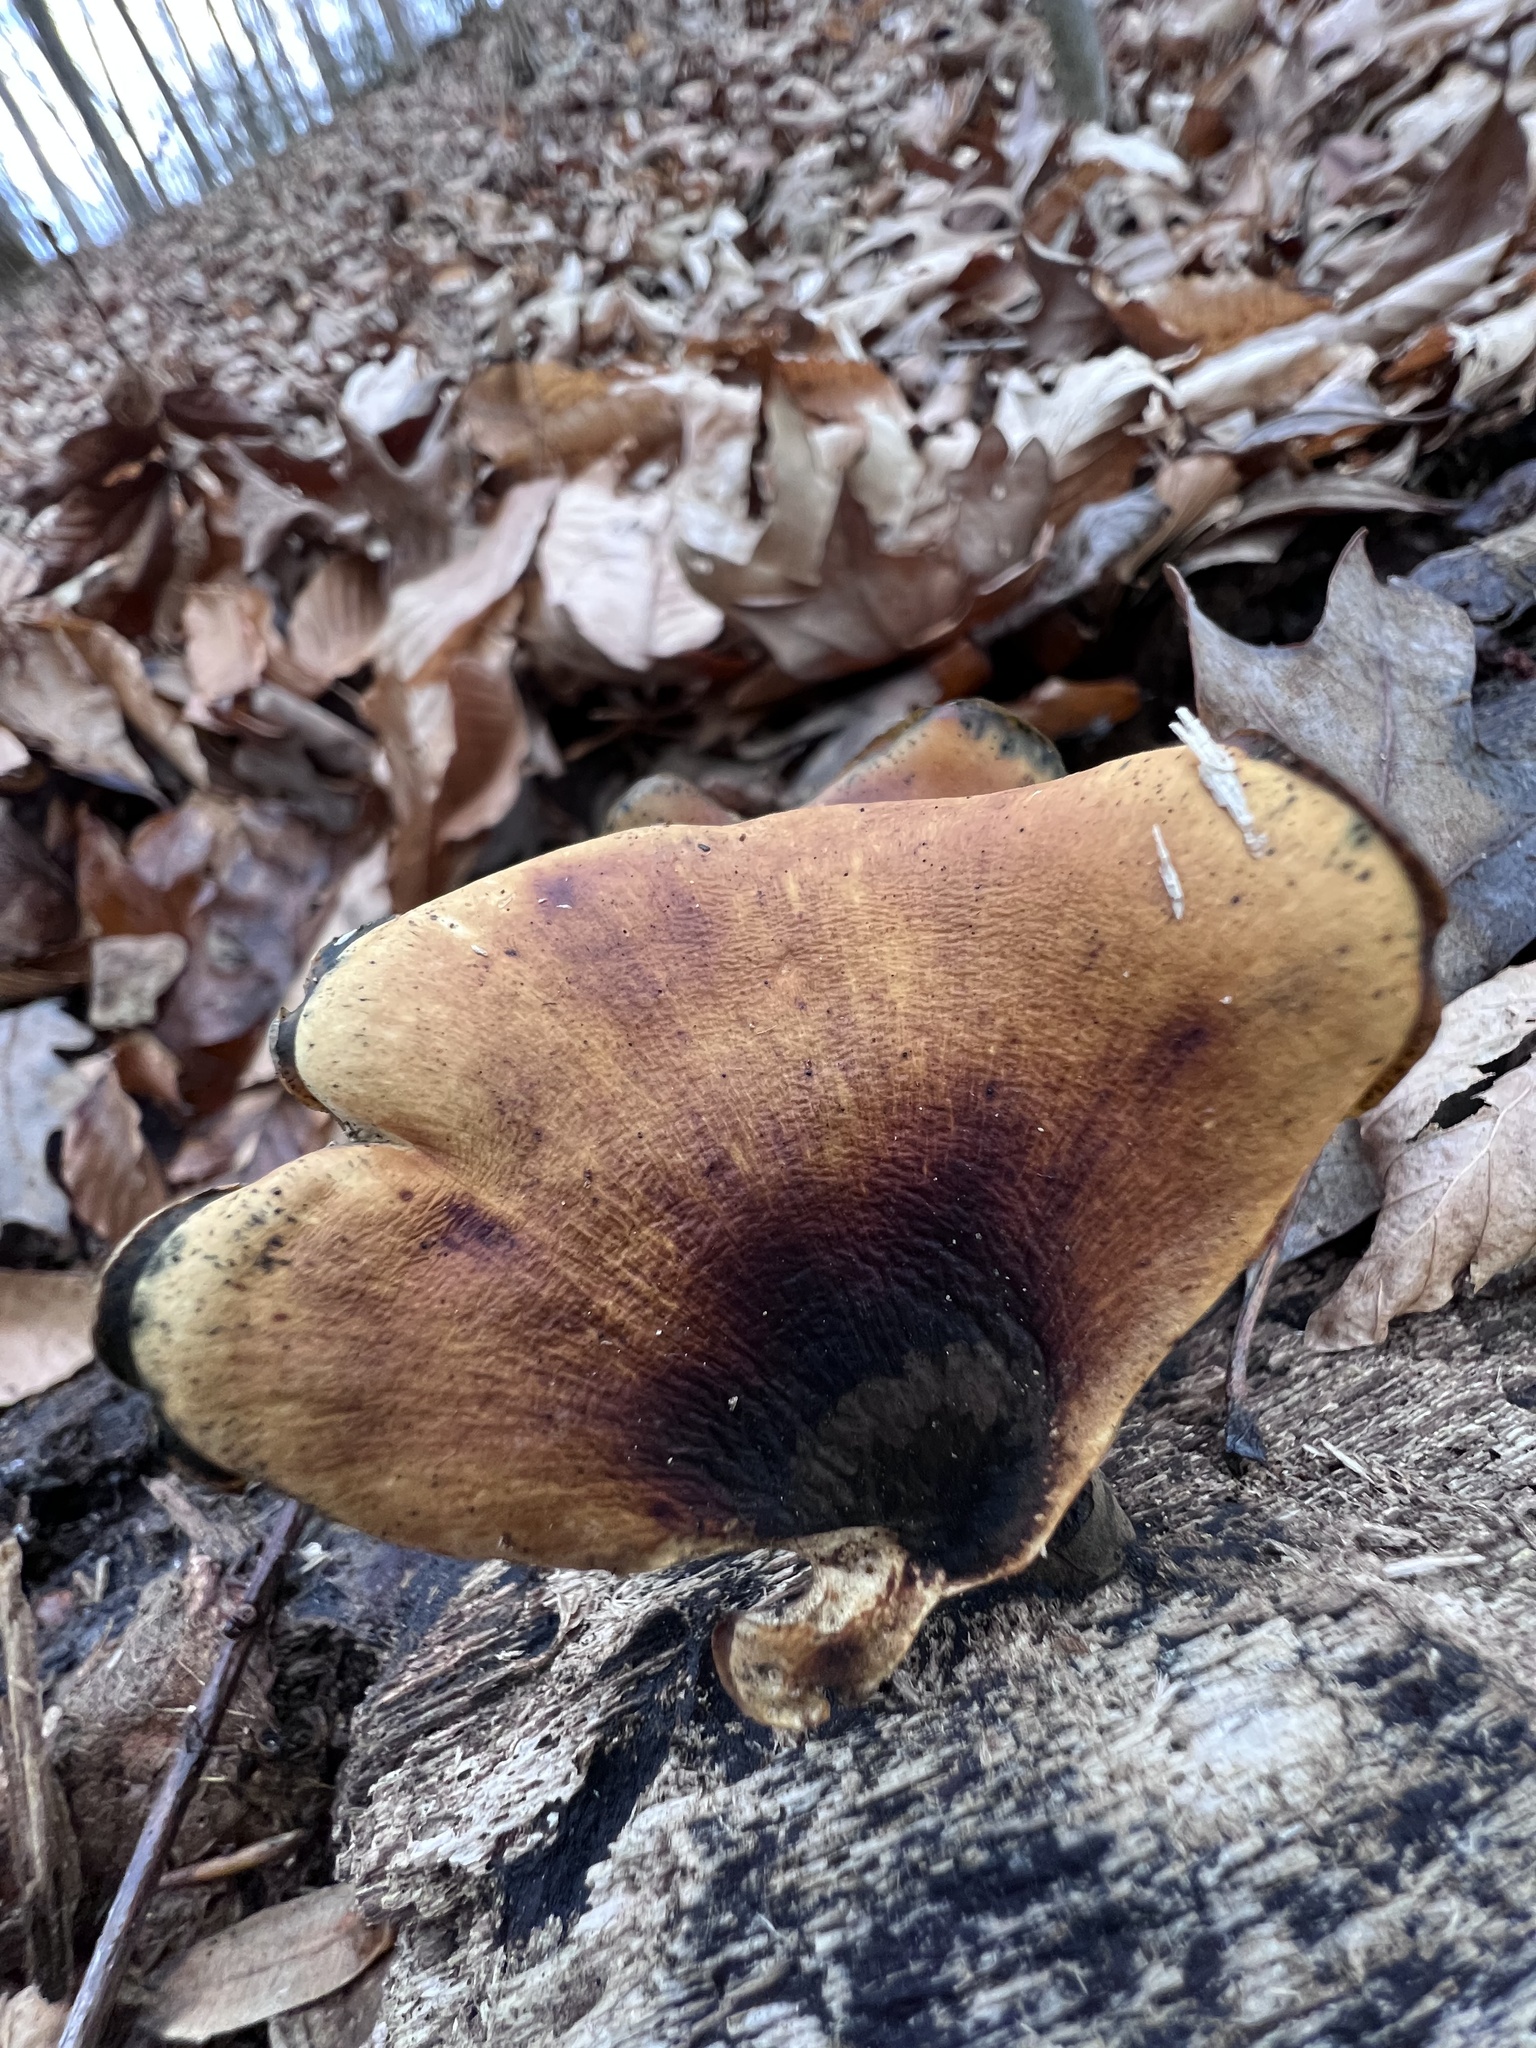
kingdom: Fungi
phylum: Basidiomycota
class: Agaricomycetes
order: Polyporales
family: Polyporaceae
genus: Picipes
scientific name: Picipes badius
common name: Bay polypore
